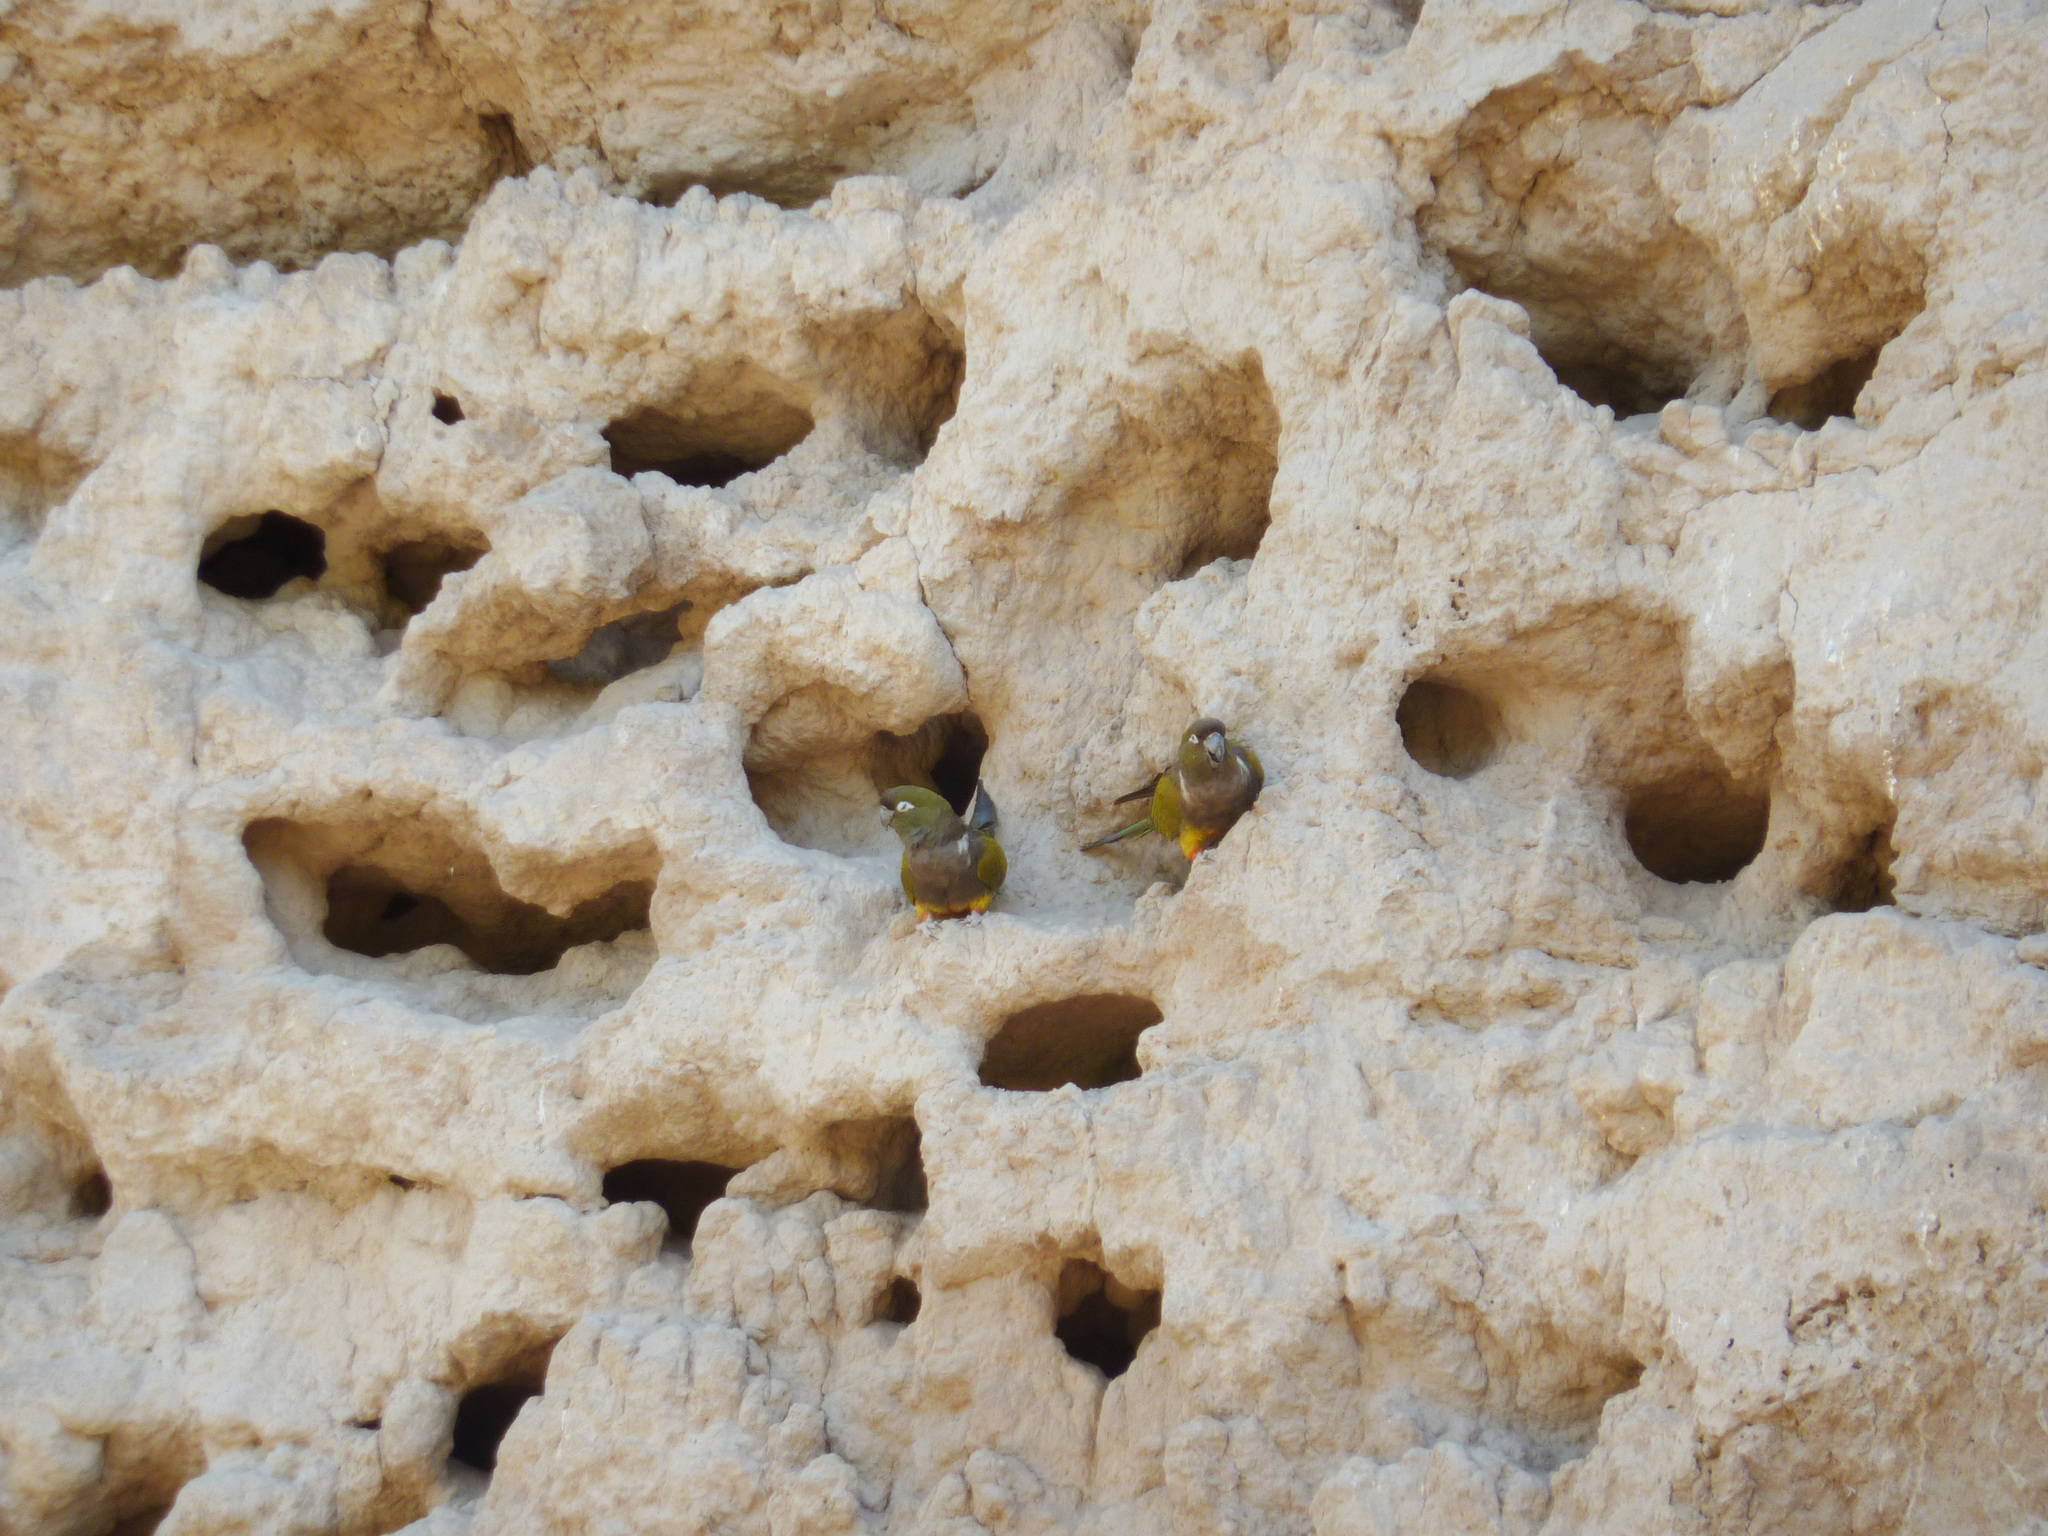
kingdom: Animalia
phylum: Chordata
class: Aves
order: Psittaciformes
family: Psittacidae
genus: Cyanoliseus
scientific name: Cyanoliseus patagonus
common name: Burrowing parrot
